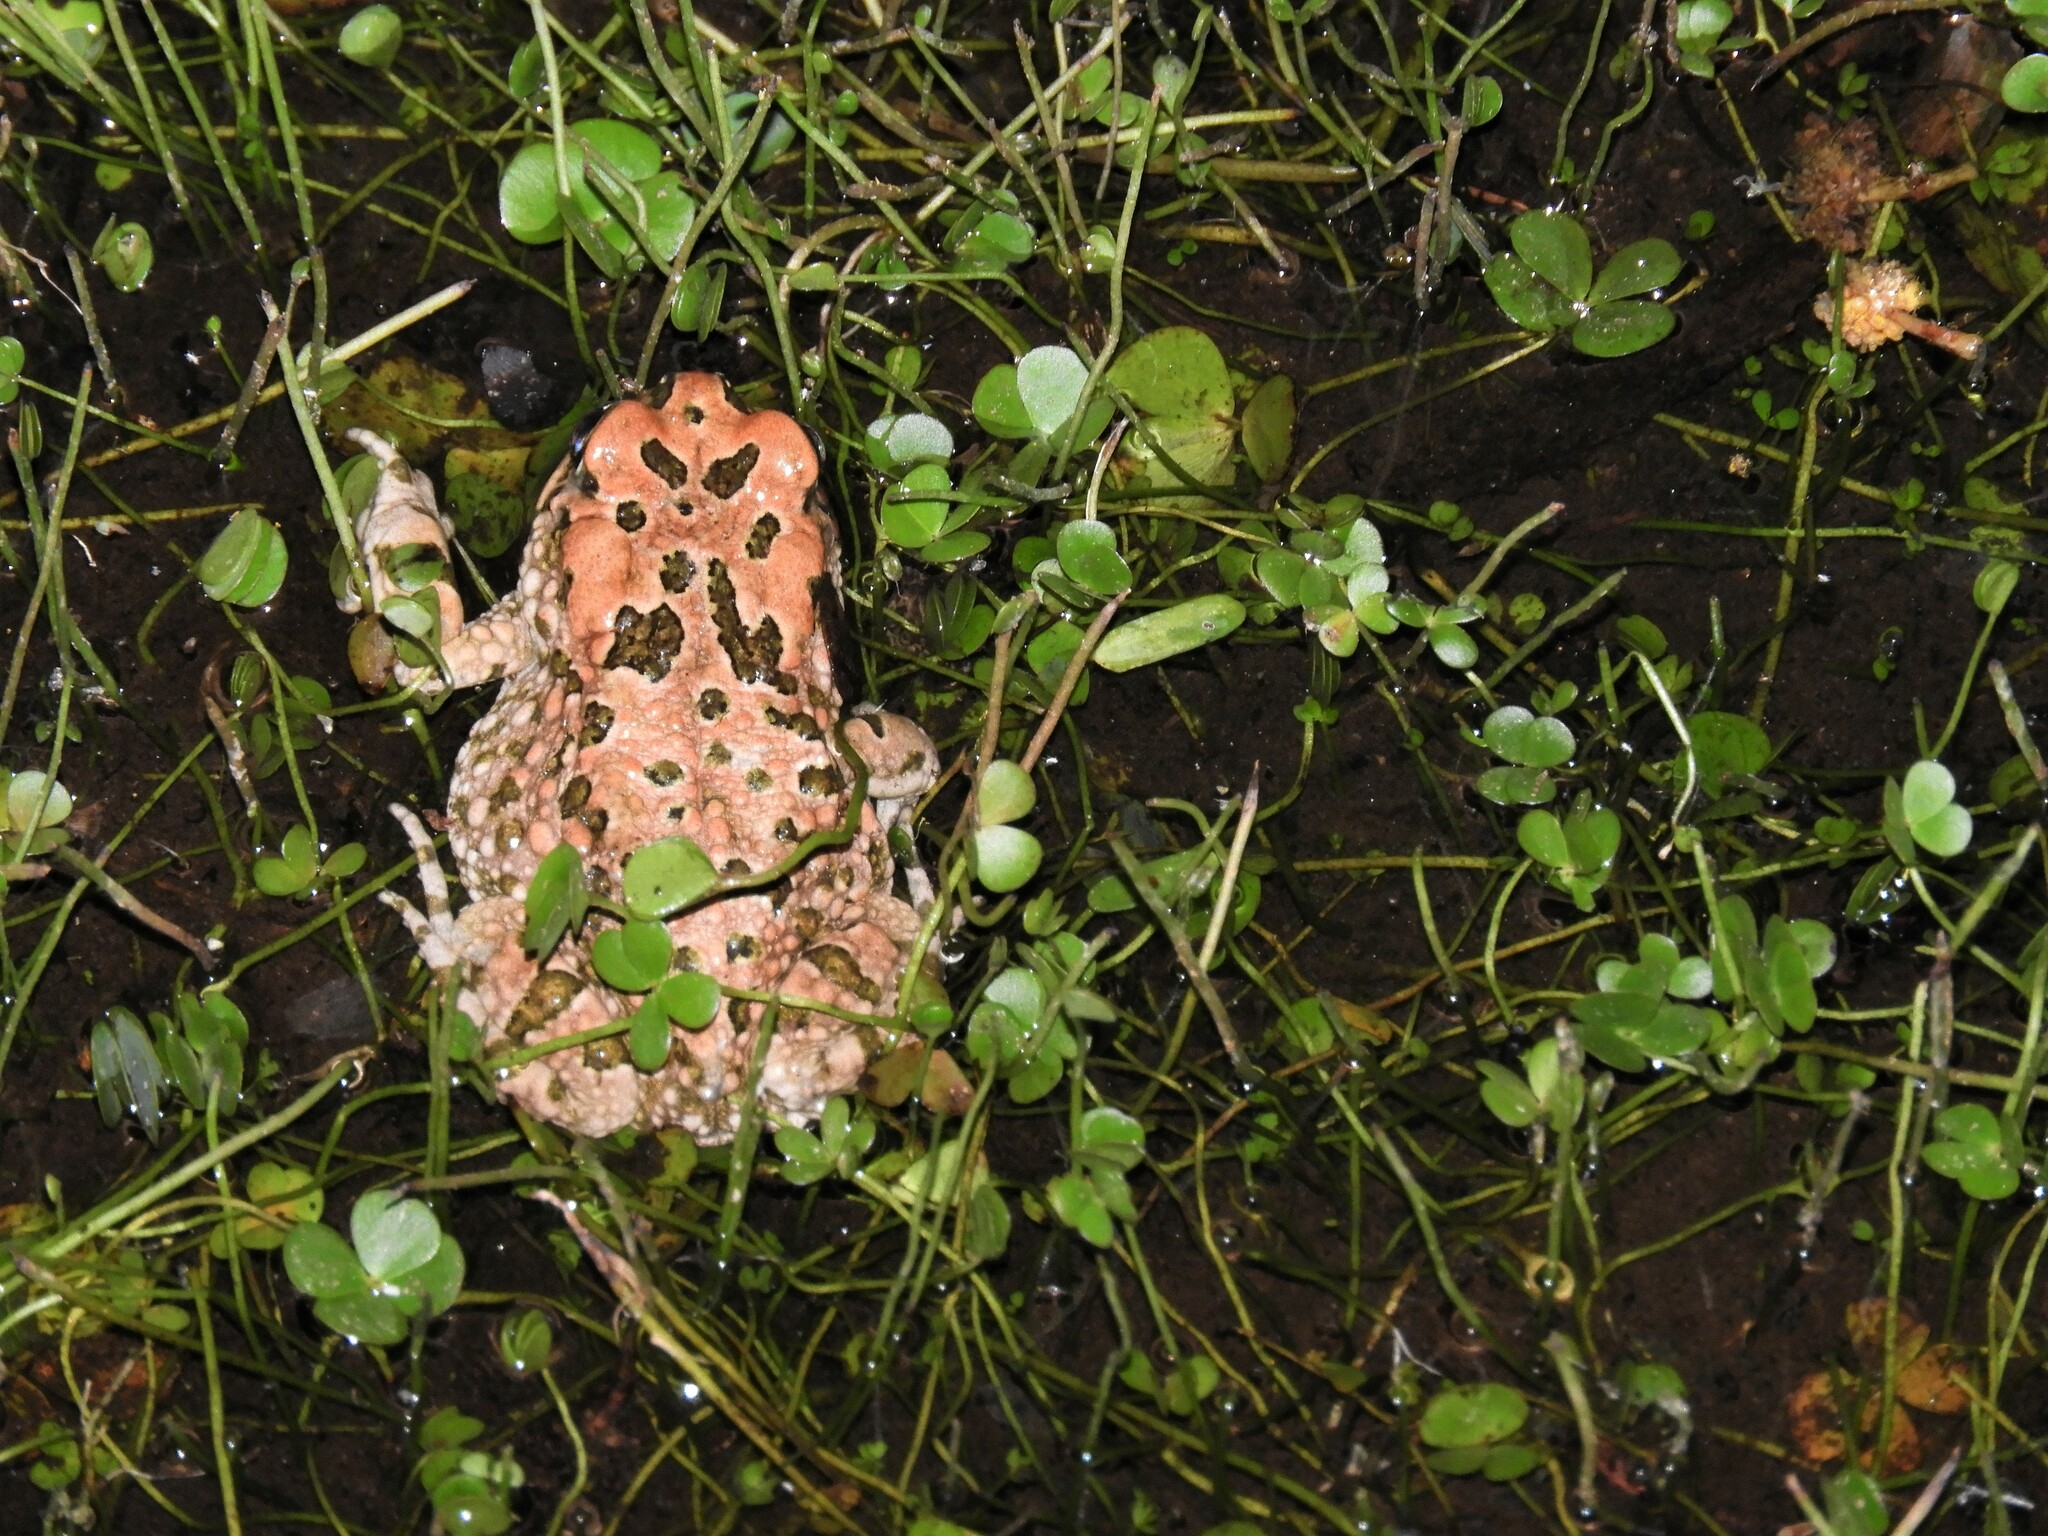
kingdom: Animalia
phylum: Chordata
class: Amphibia
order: Anura
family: Bufonidae
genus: Vandijkophrynus
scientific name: Vandijkophrynus robinsoni
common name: Paradise toad
